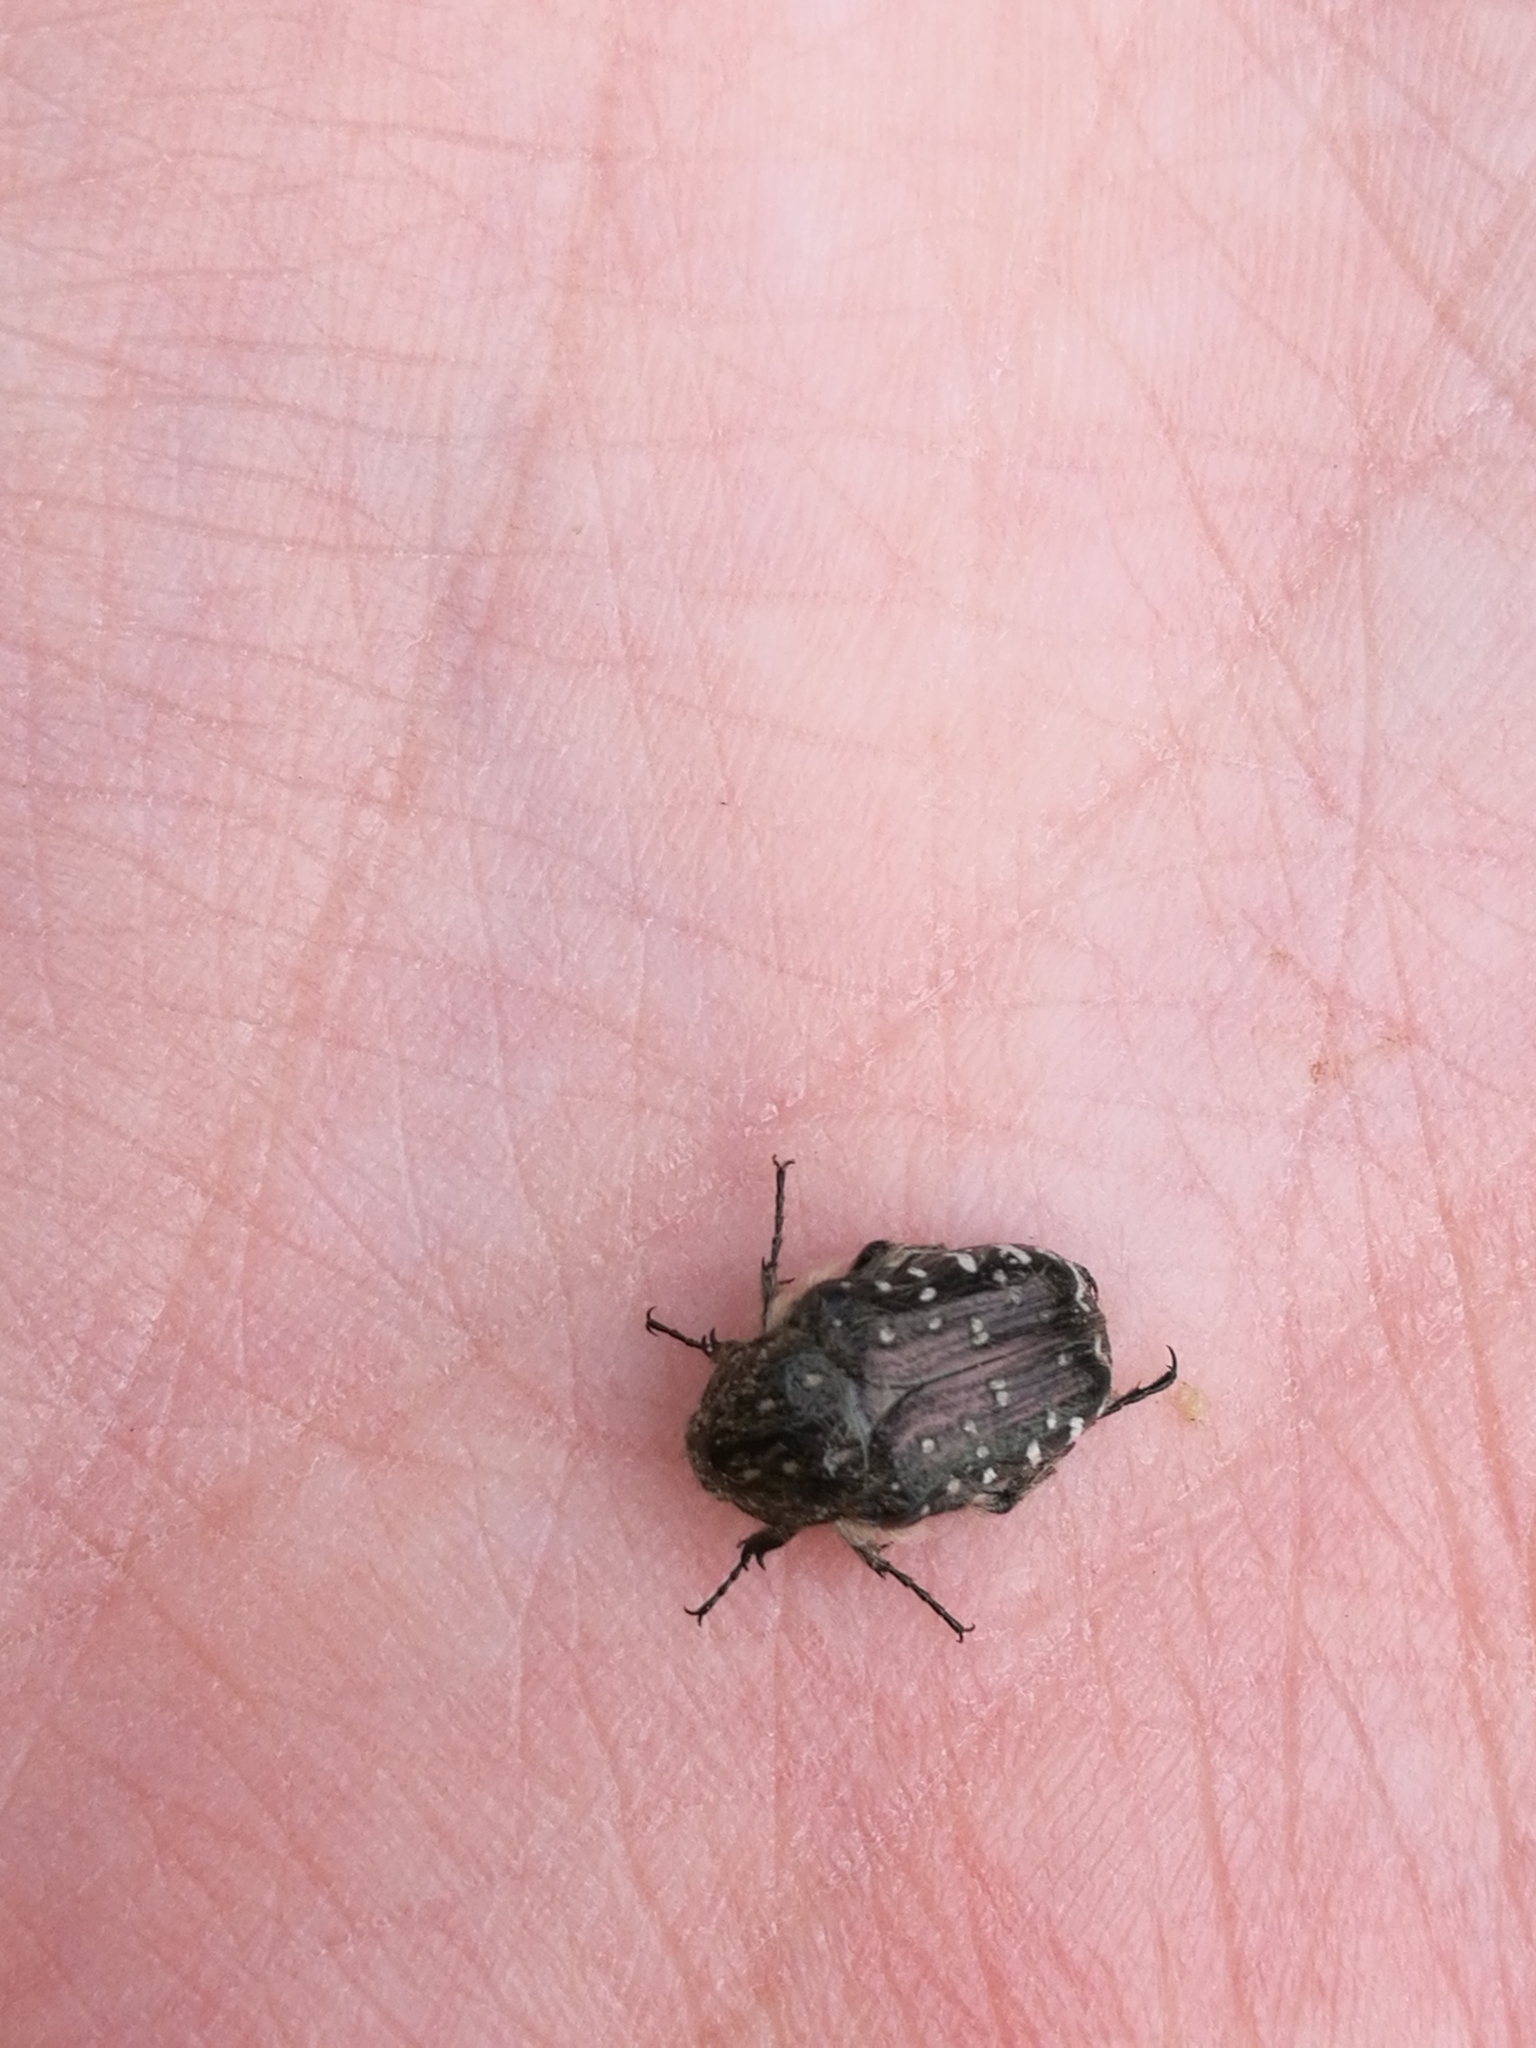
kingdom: Animalia
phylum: Arthropoda
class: Insecta
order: Coleoptera
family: Scarabaeidae
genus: Oxythyrea
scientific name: Oxythyrea funesta
